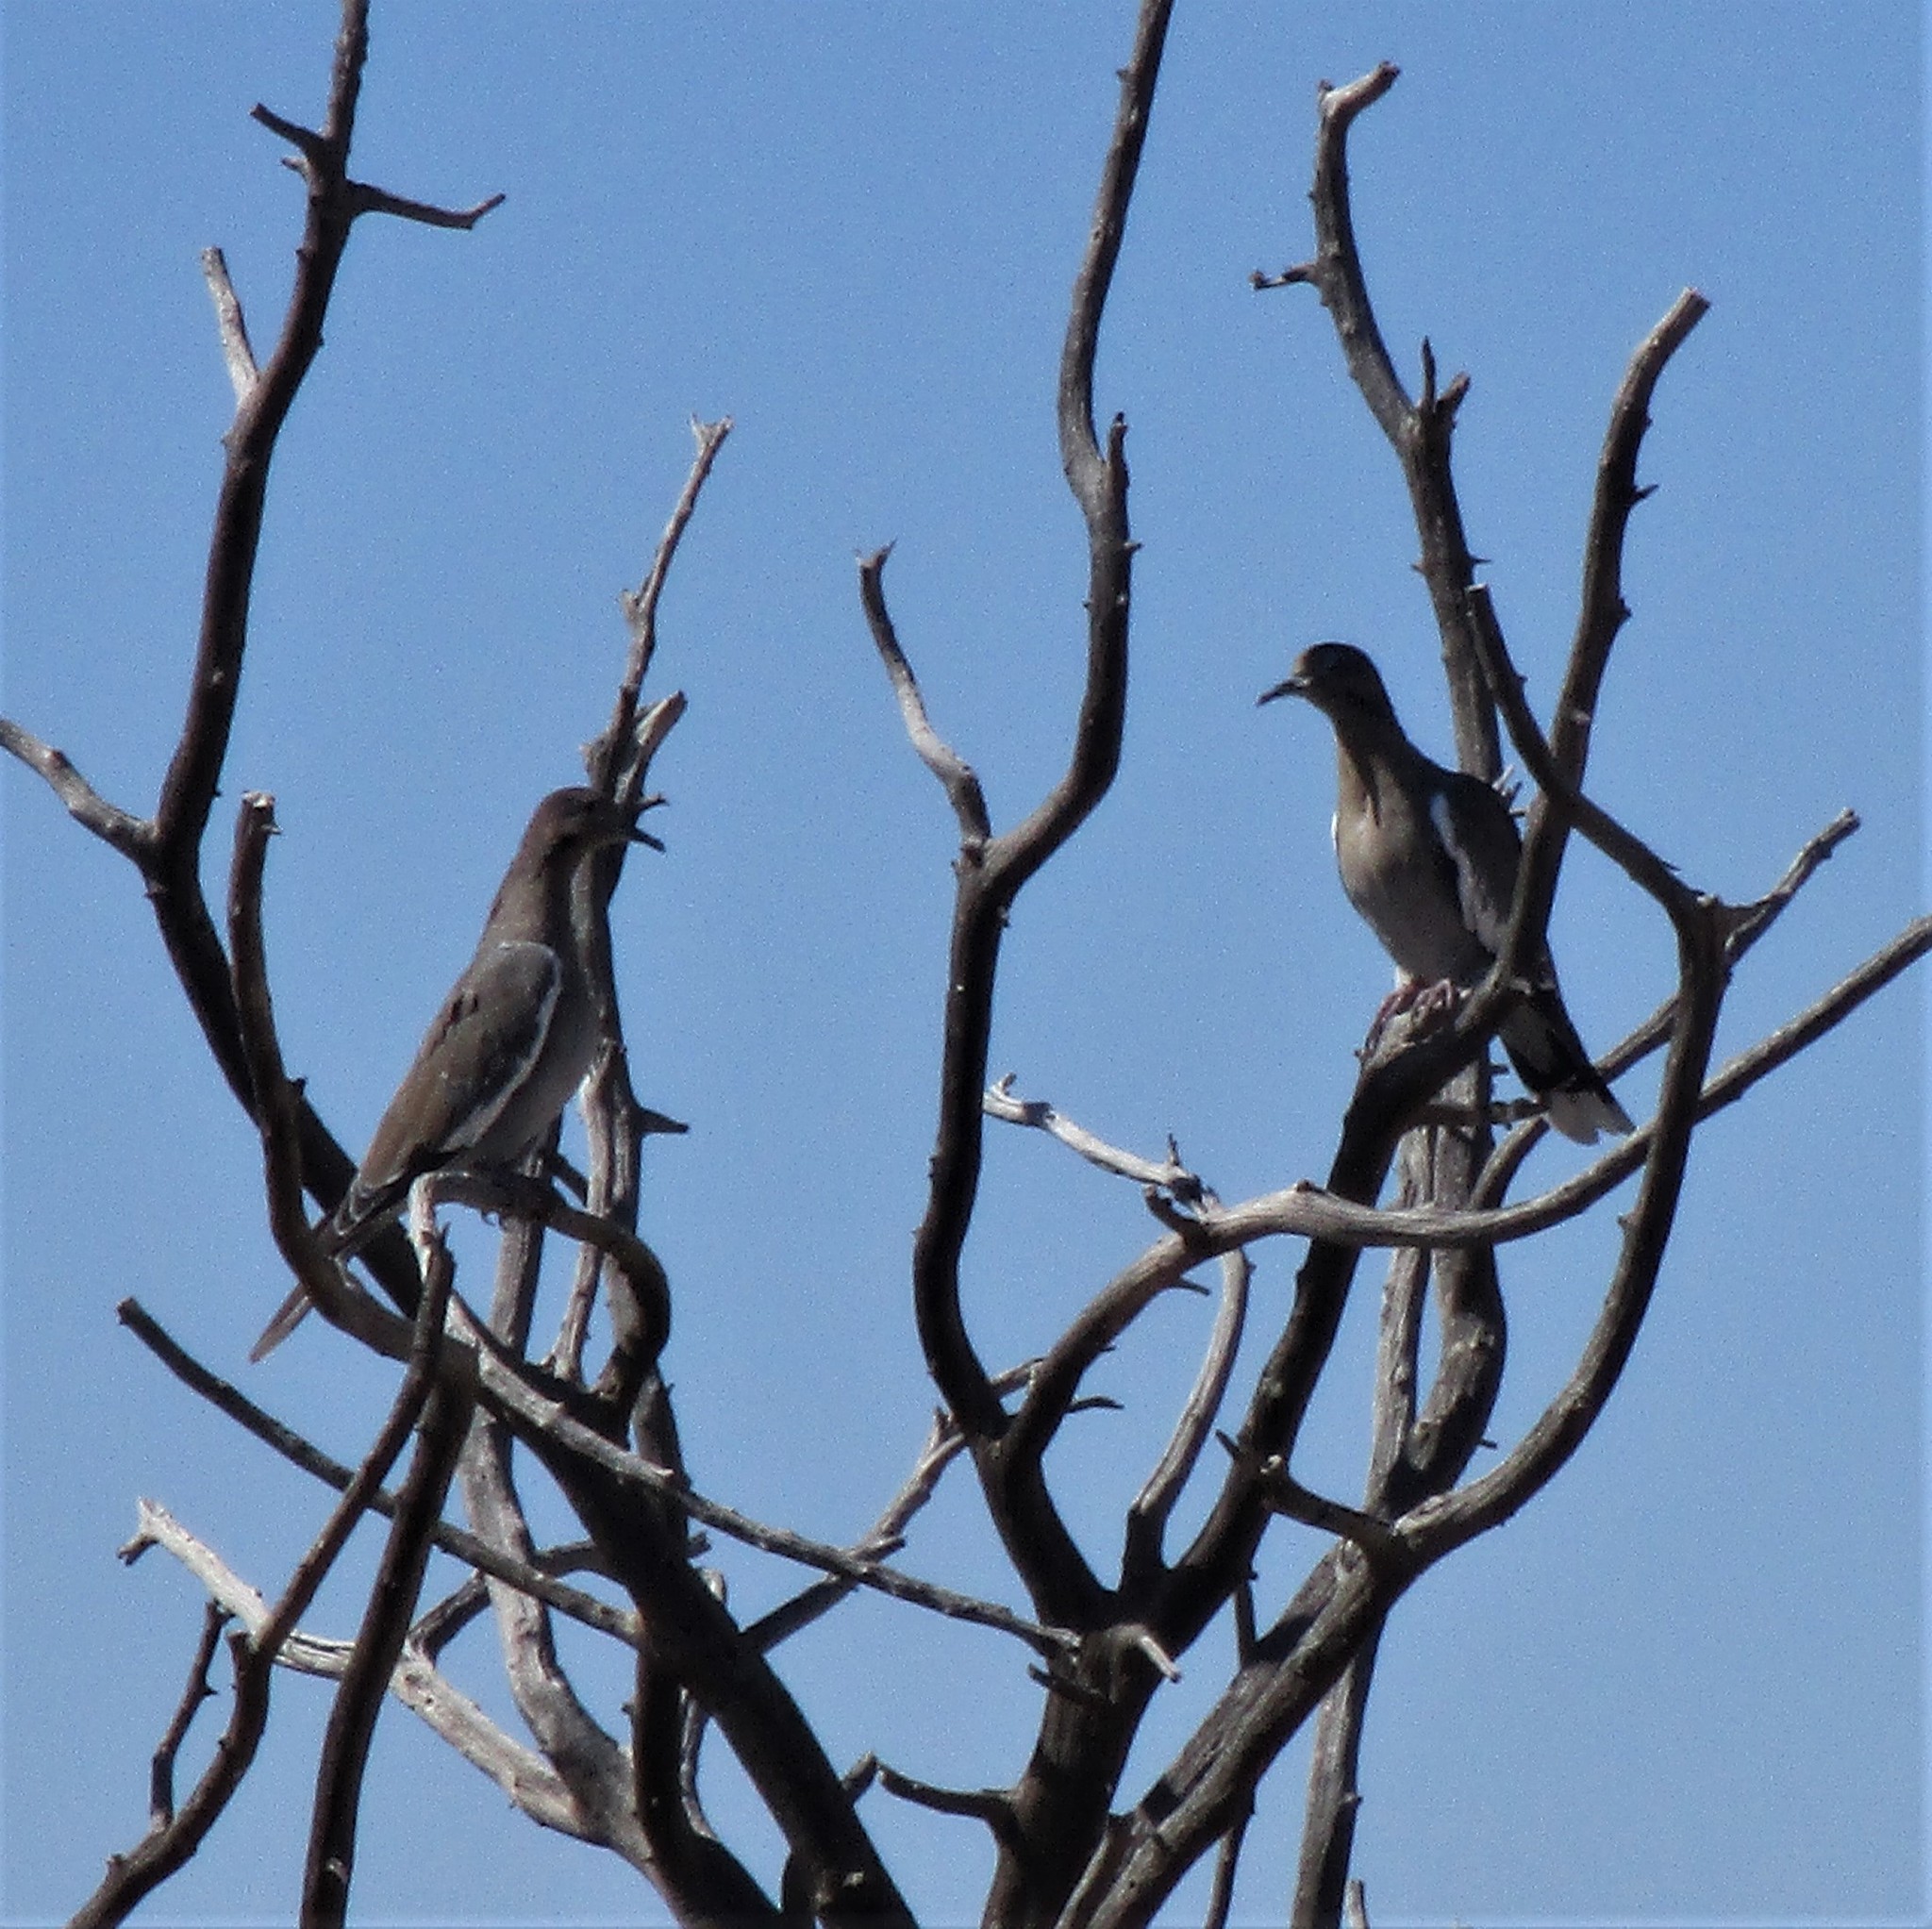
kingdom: Animalia
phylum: Chordata
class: Aves
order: Columbiformes
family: Columbidae
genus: Zenaida
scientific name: Zenaida asiatica
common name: White-winged dove
